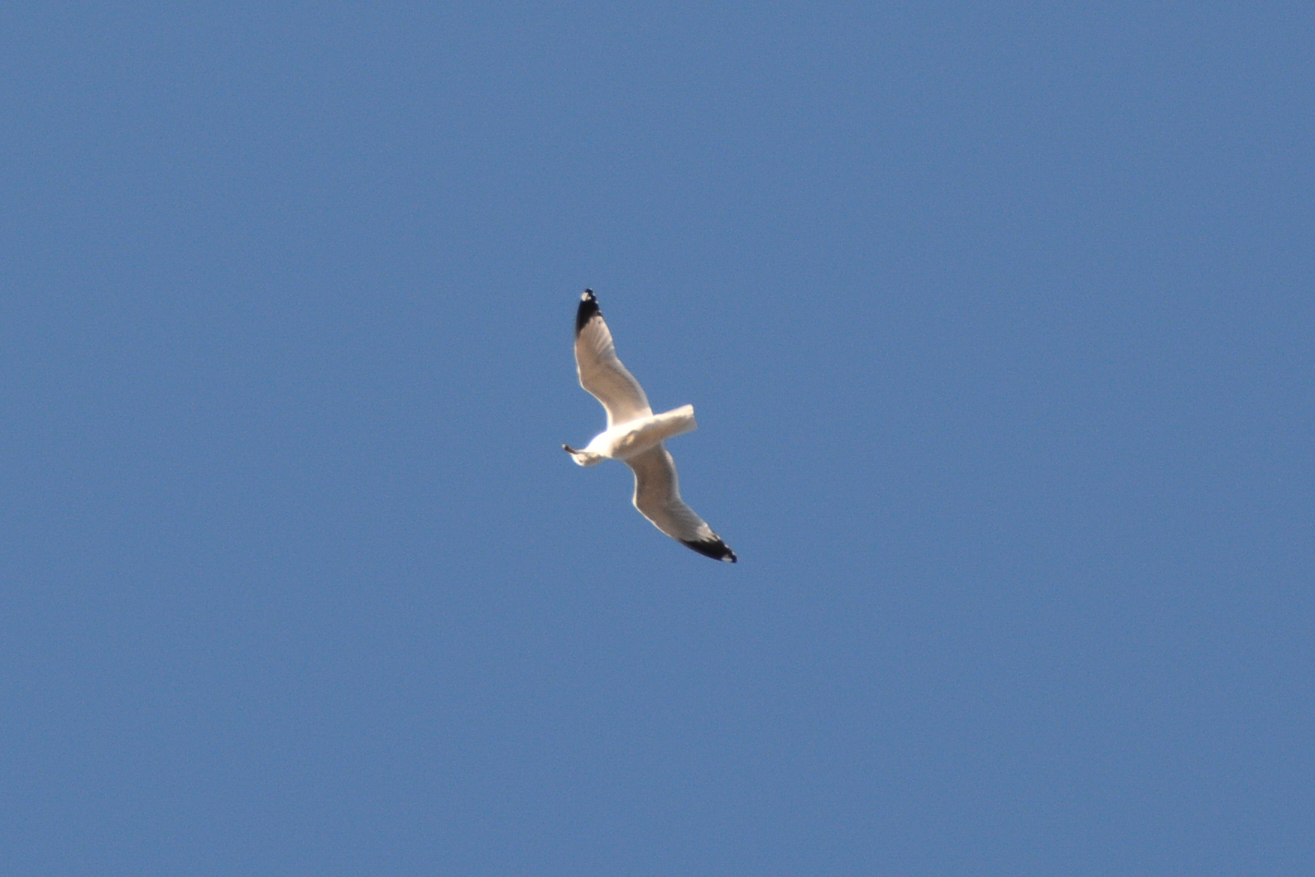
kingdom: Animalia
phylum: Chordata
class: Aves
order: Charadriiformes
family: Laridae
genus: Larus
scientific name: Larus delawarensis
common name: Ring-billed gull
